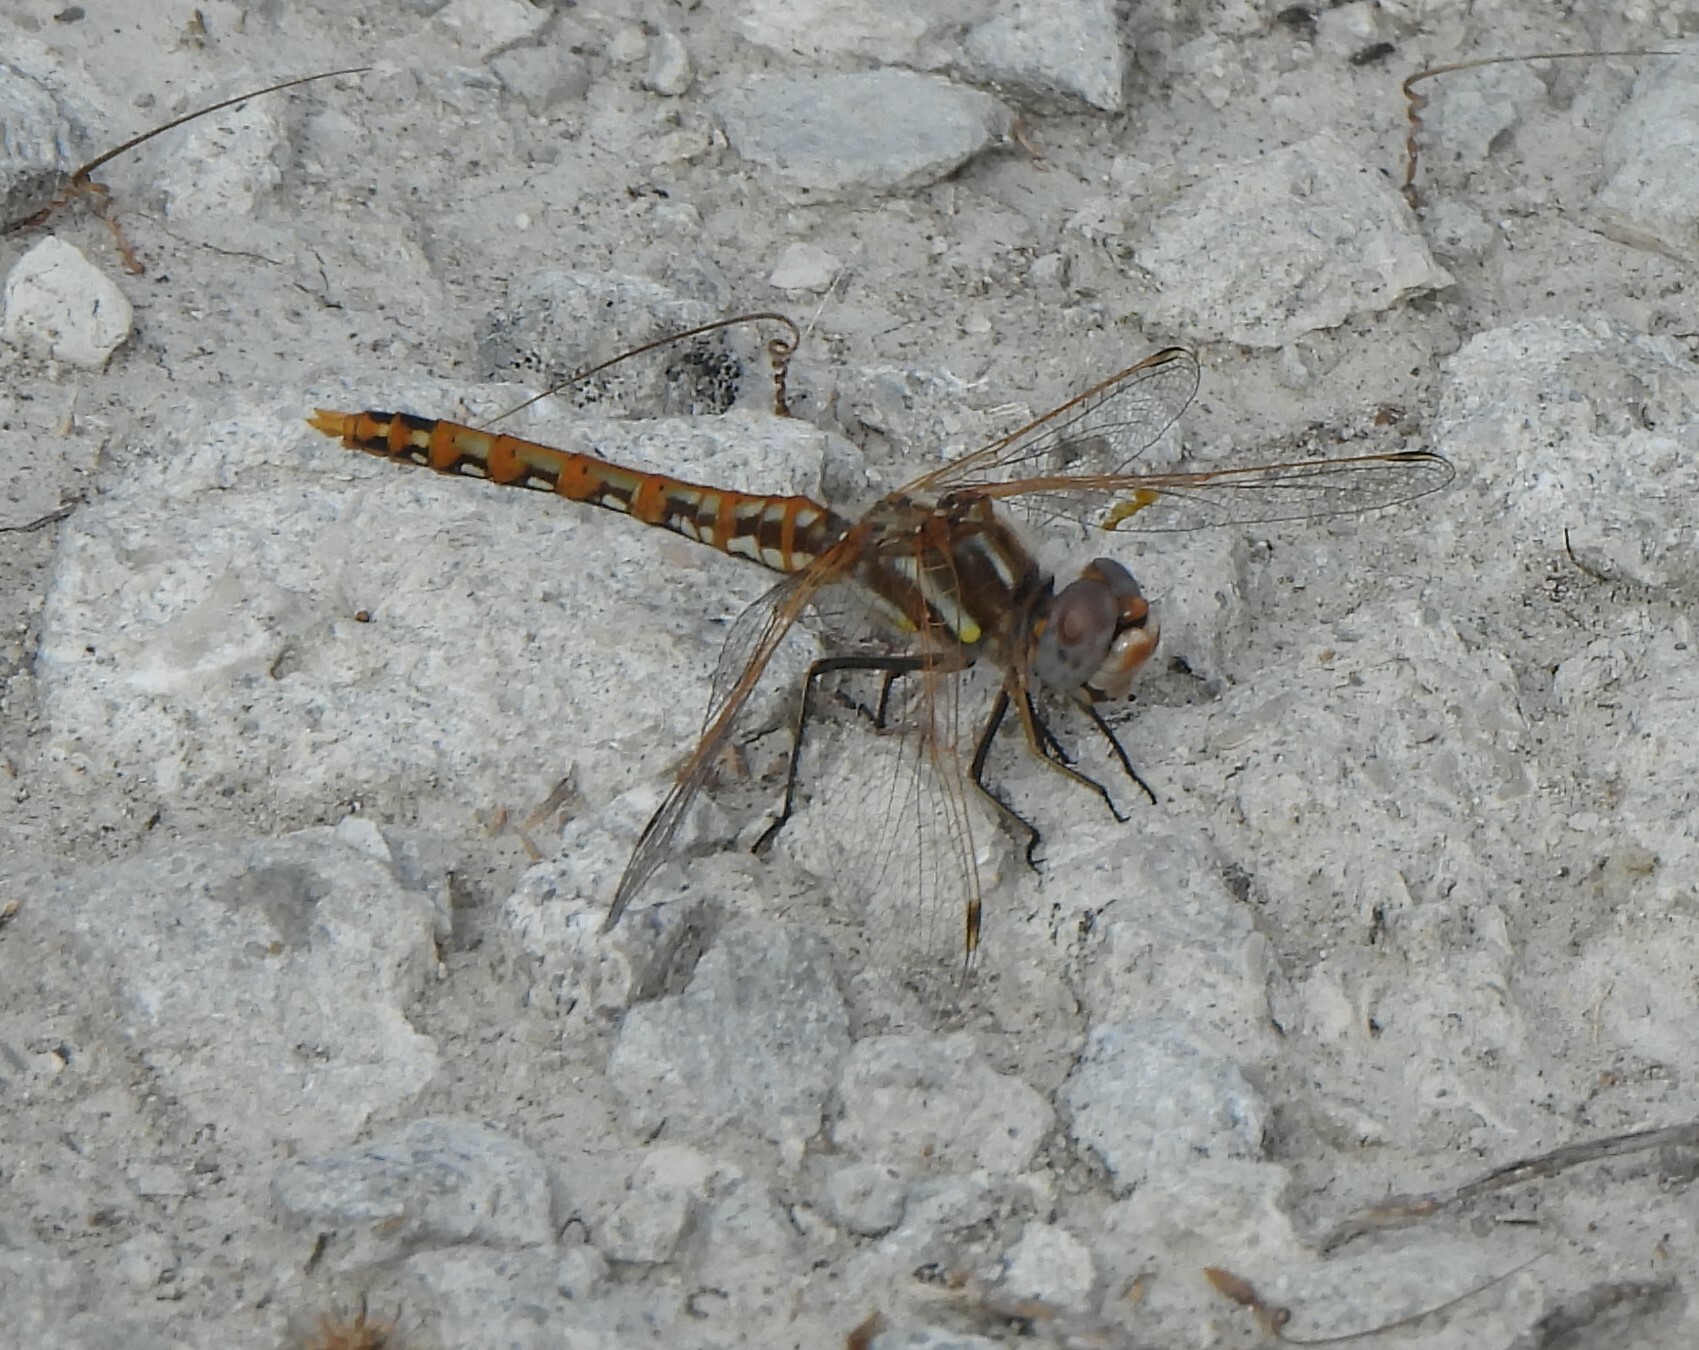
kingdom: Animalia
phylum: Arthropoda
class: Insecta
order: Odonata
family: Libellulidae
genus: Sympetrum
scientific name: Sympetrum corruptum
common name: Variegated meadowhawk
